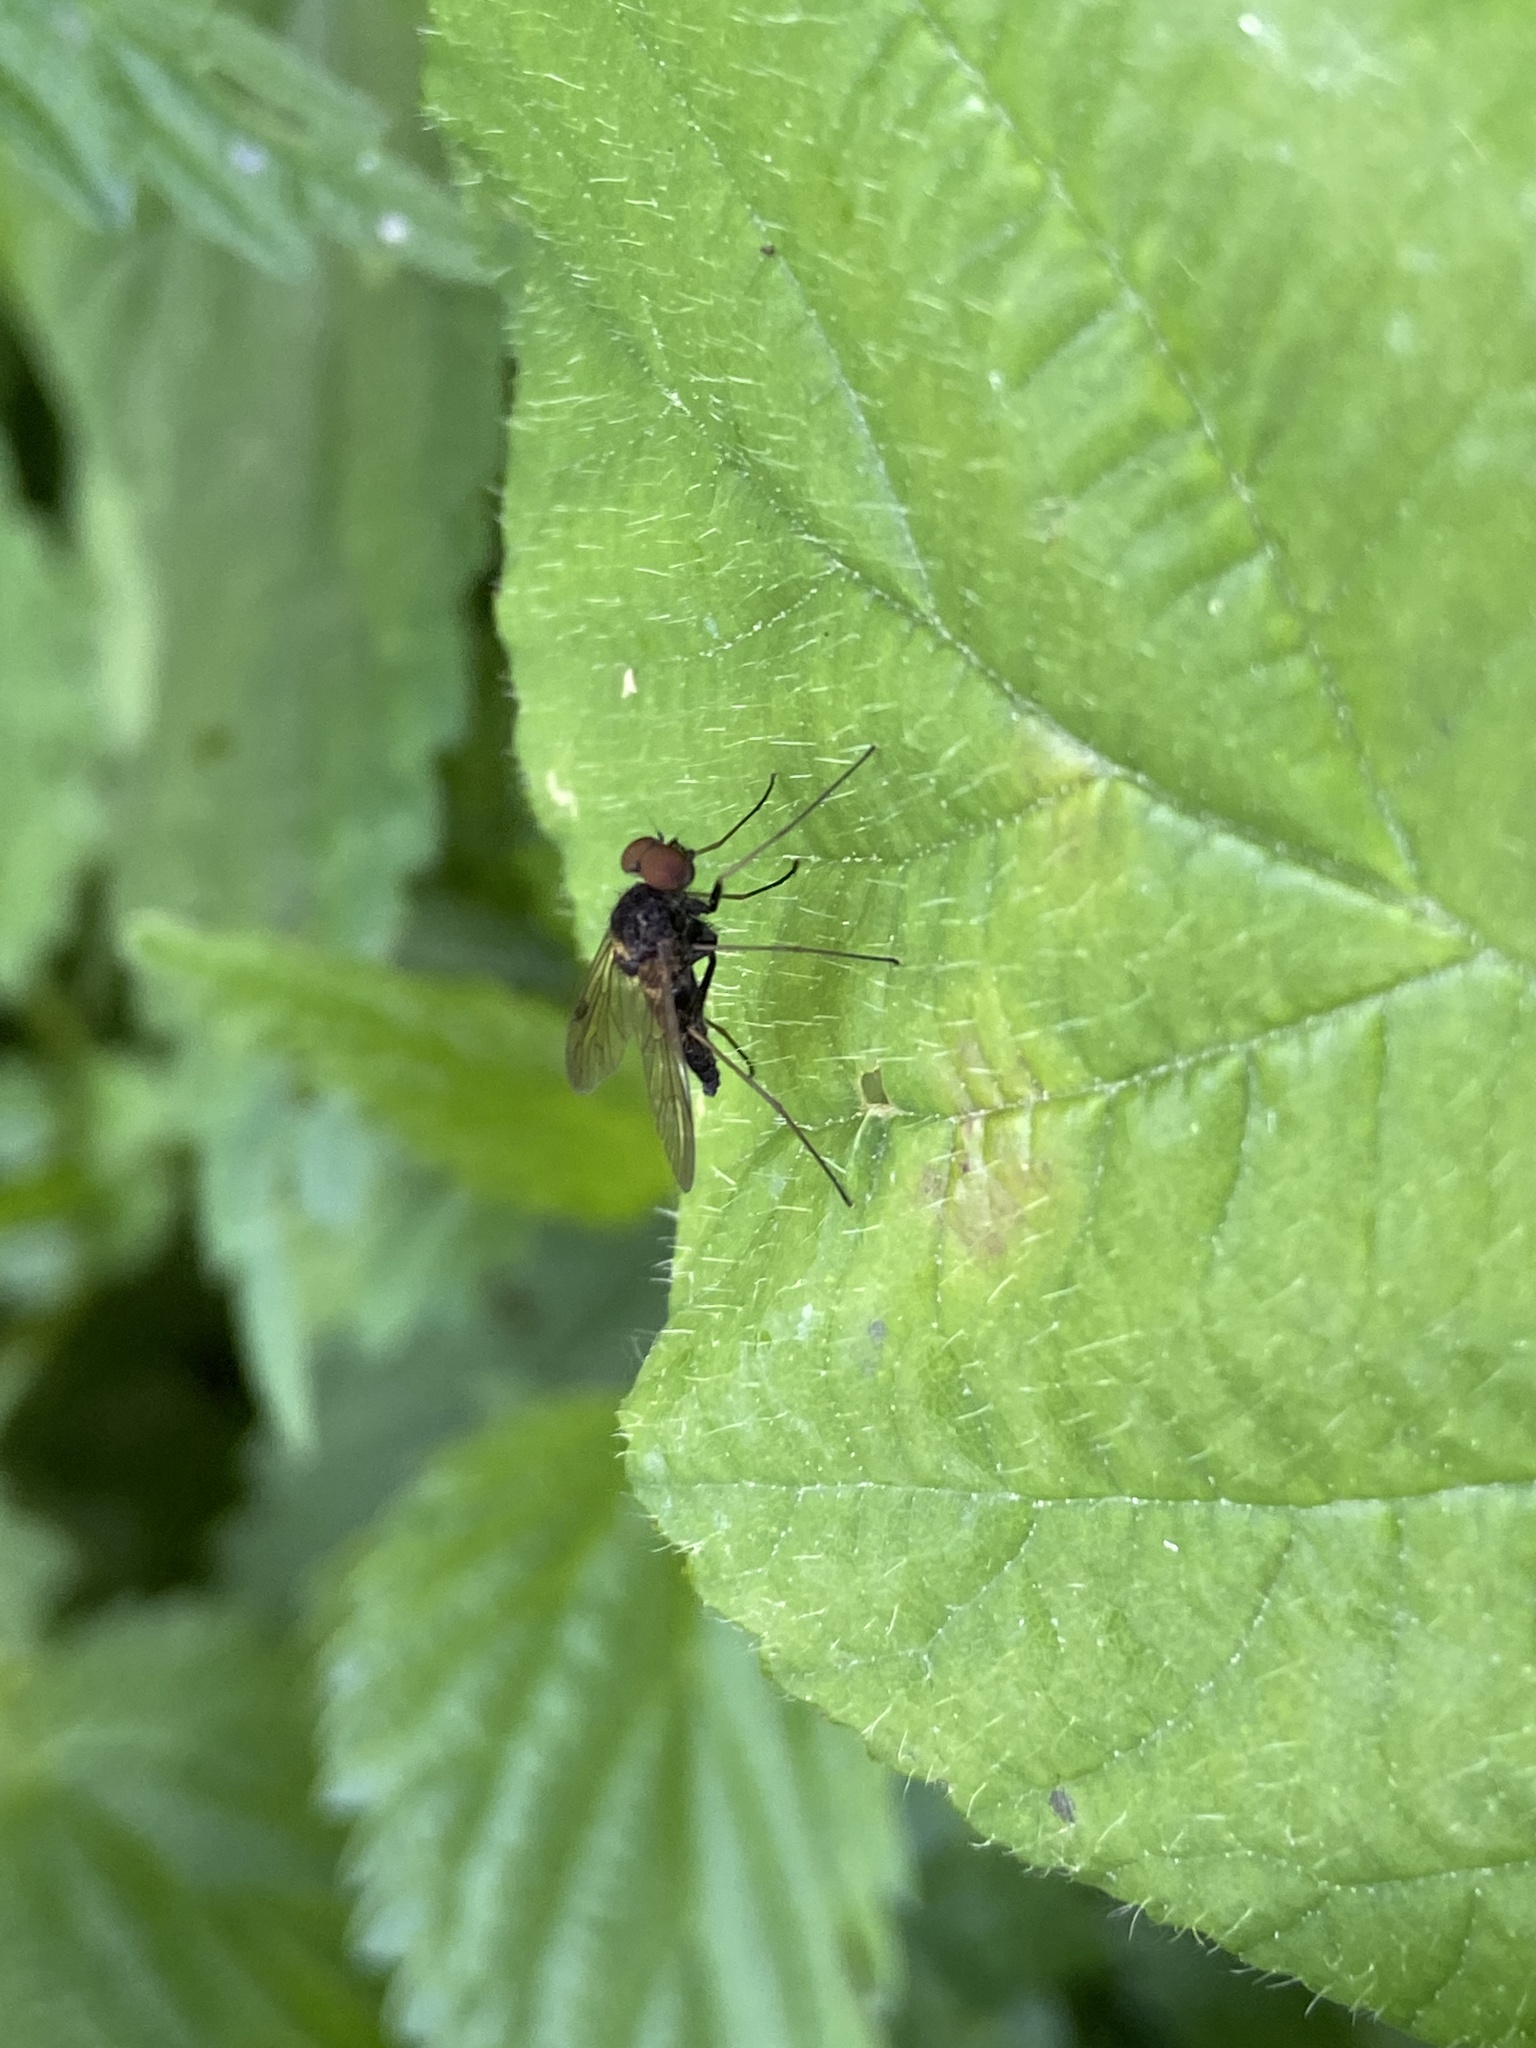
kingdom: Animalia
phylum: Arthropoda
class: Insecta
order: Diptera
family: Rhagionidae
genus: Chrysopilus
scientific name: Chrysopilus cristatus
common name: Black snipefly
